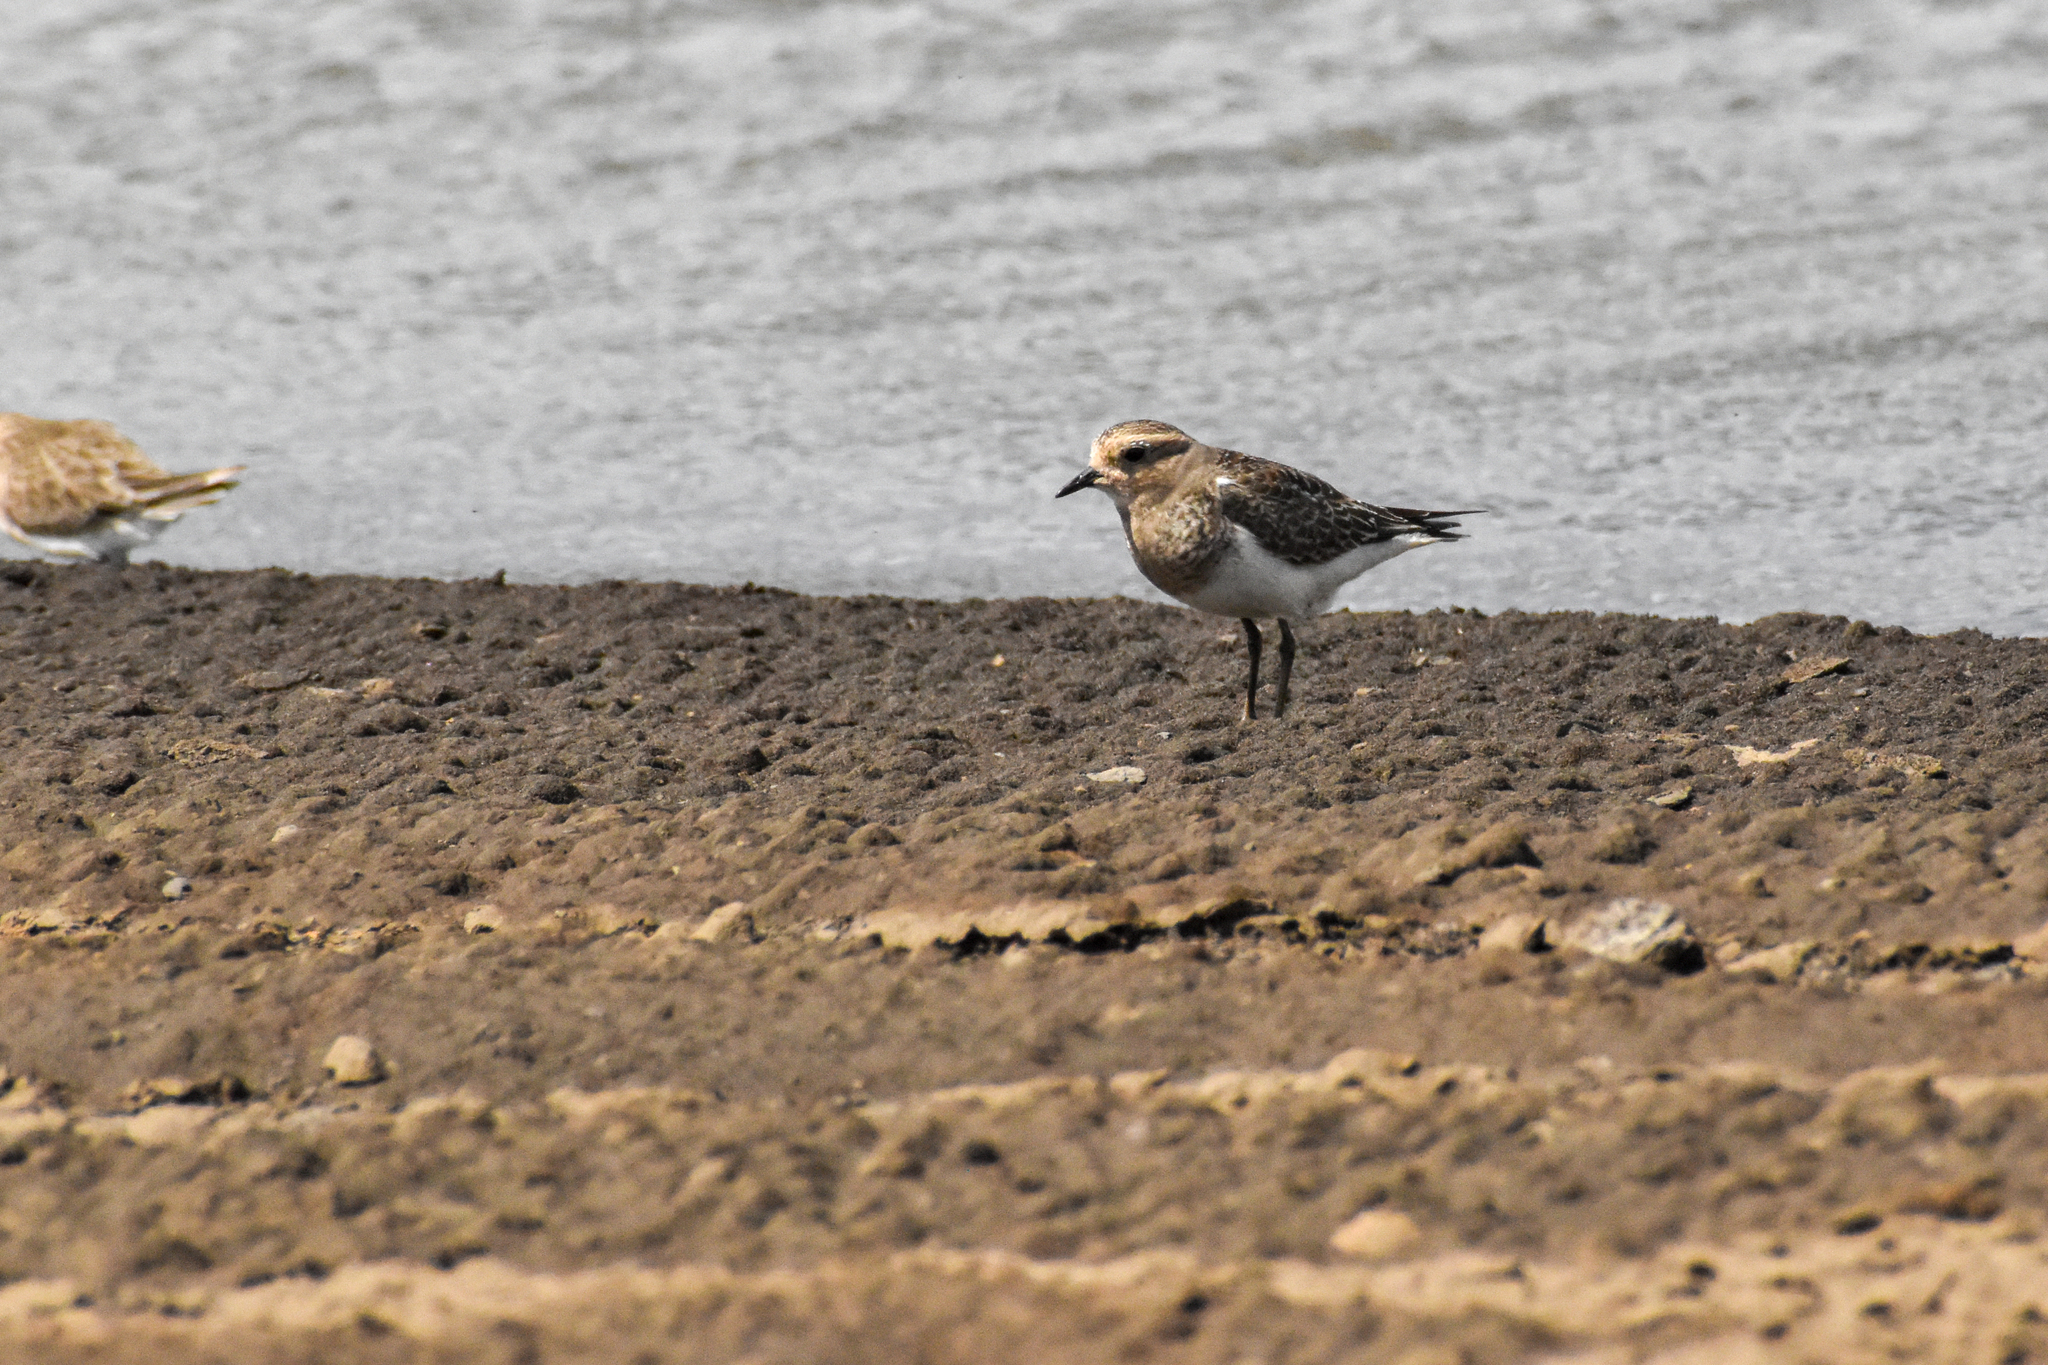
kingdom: Animalia
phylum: Chordata
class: Aves
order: Charadriiformes
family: Charadriidae
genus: Charadrius
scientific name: Charadrius modestus
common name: Rufous-chested plover
